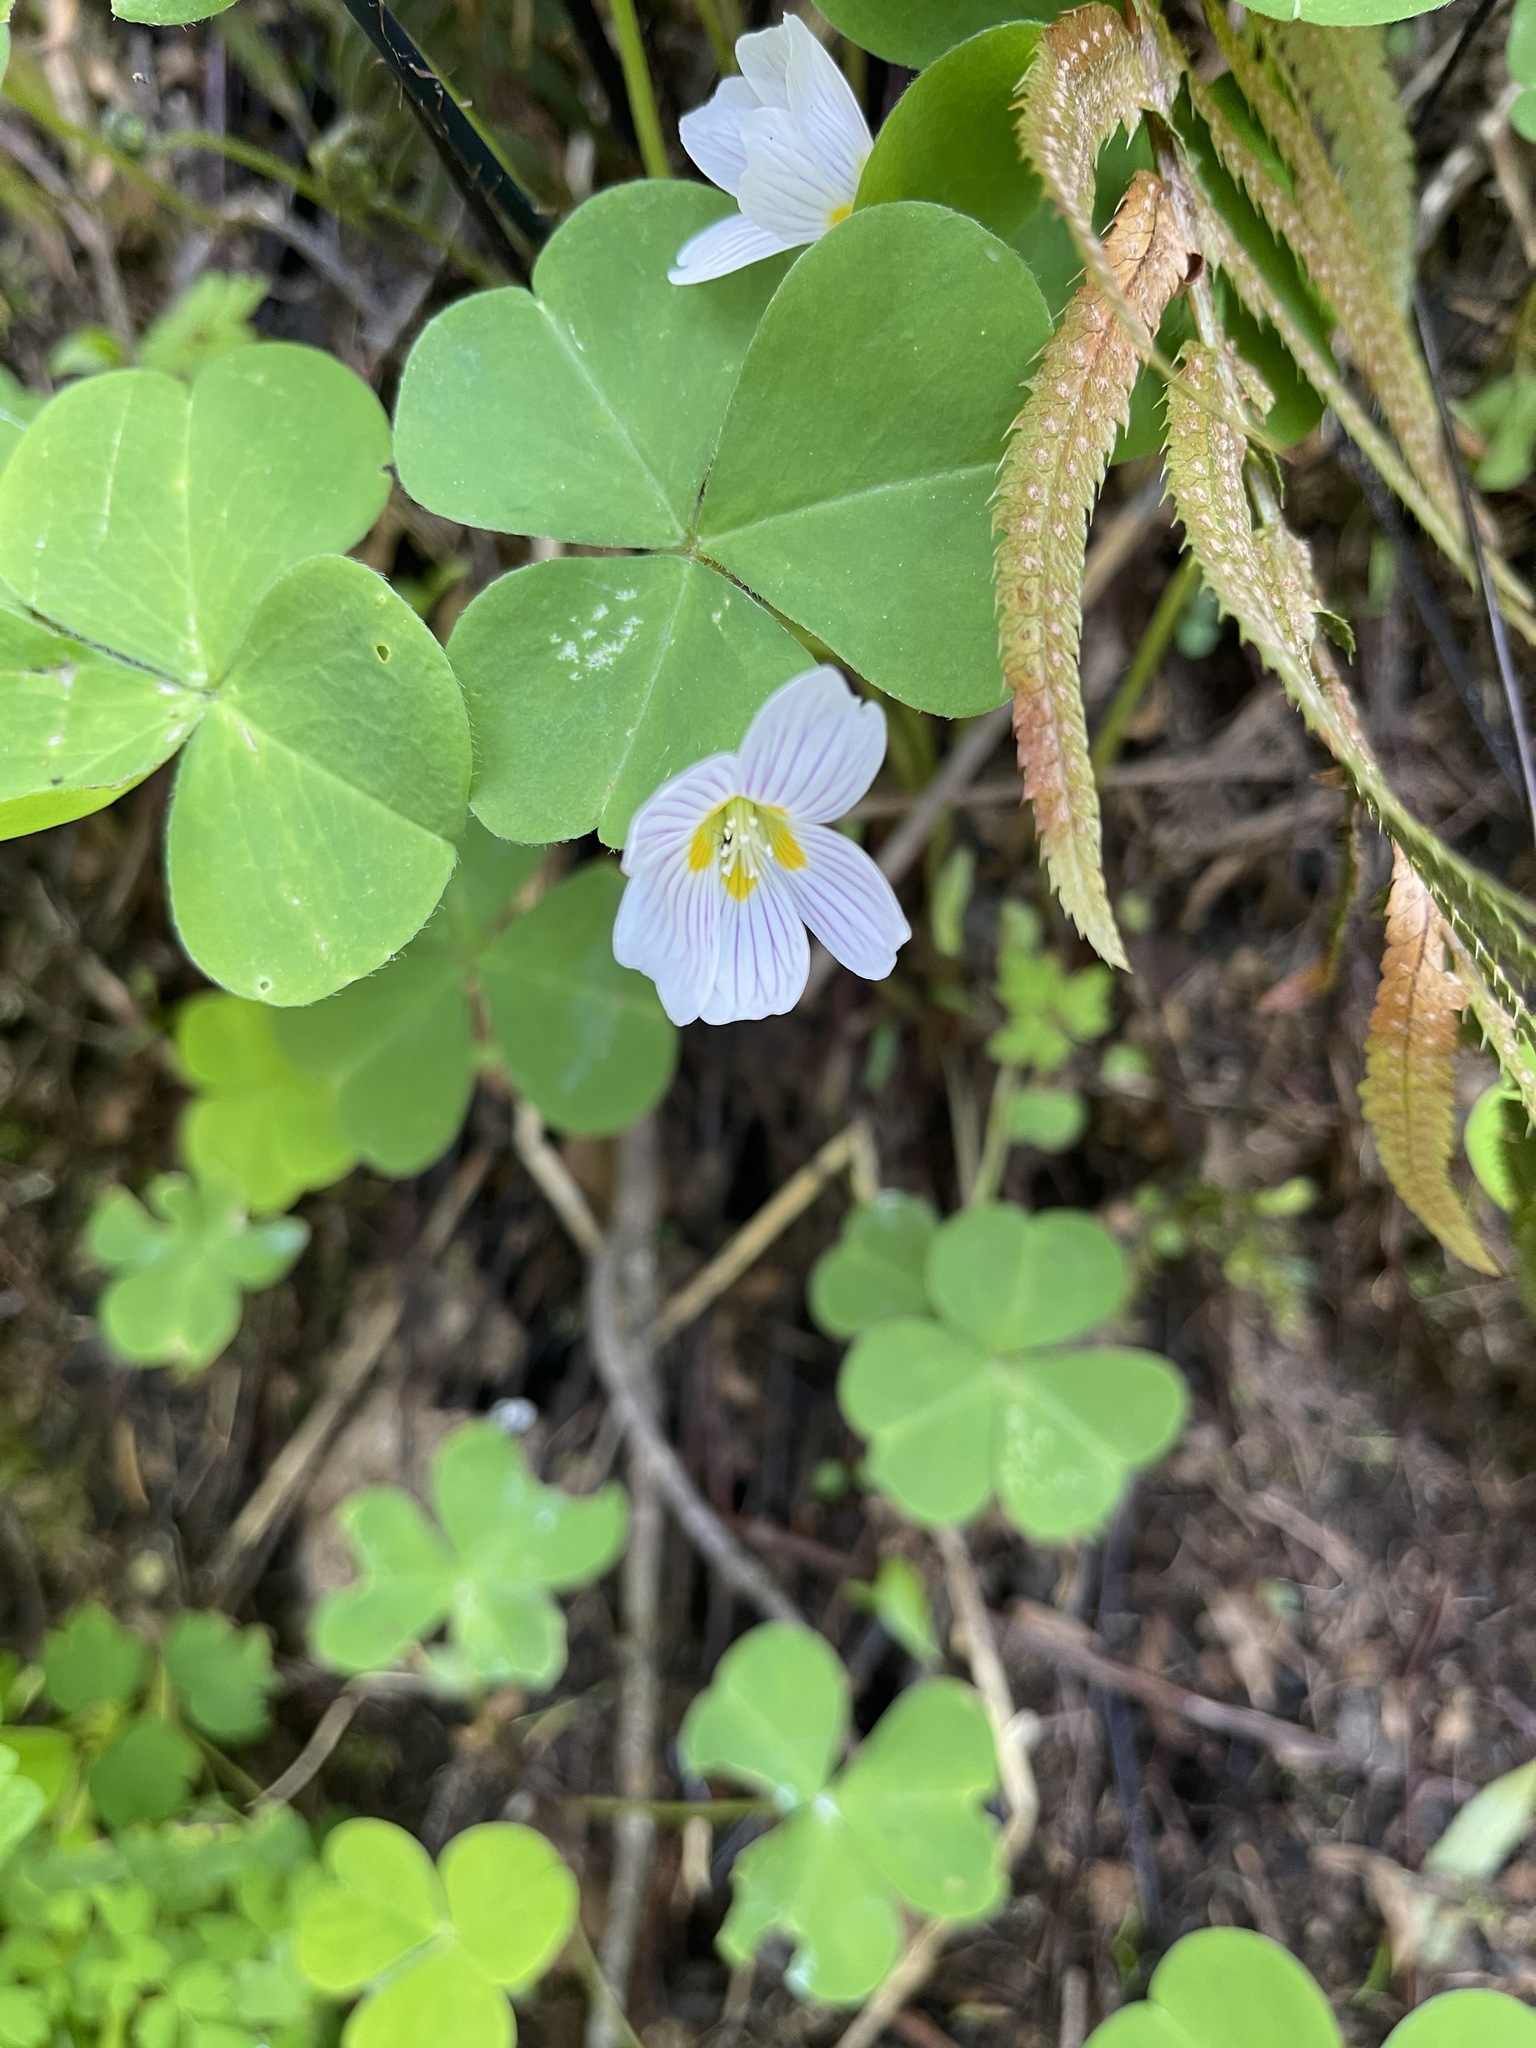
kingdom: Plantae
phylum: Tracheophyta
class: Magnoliopsida
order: Oxalidales
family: Oxalidaceae
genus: Oxalis
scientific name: Oxalis oregana
